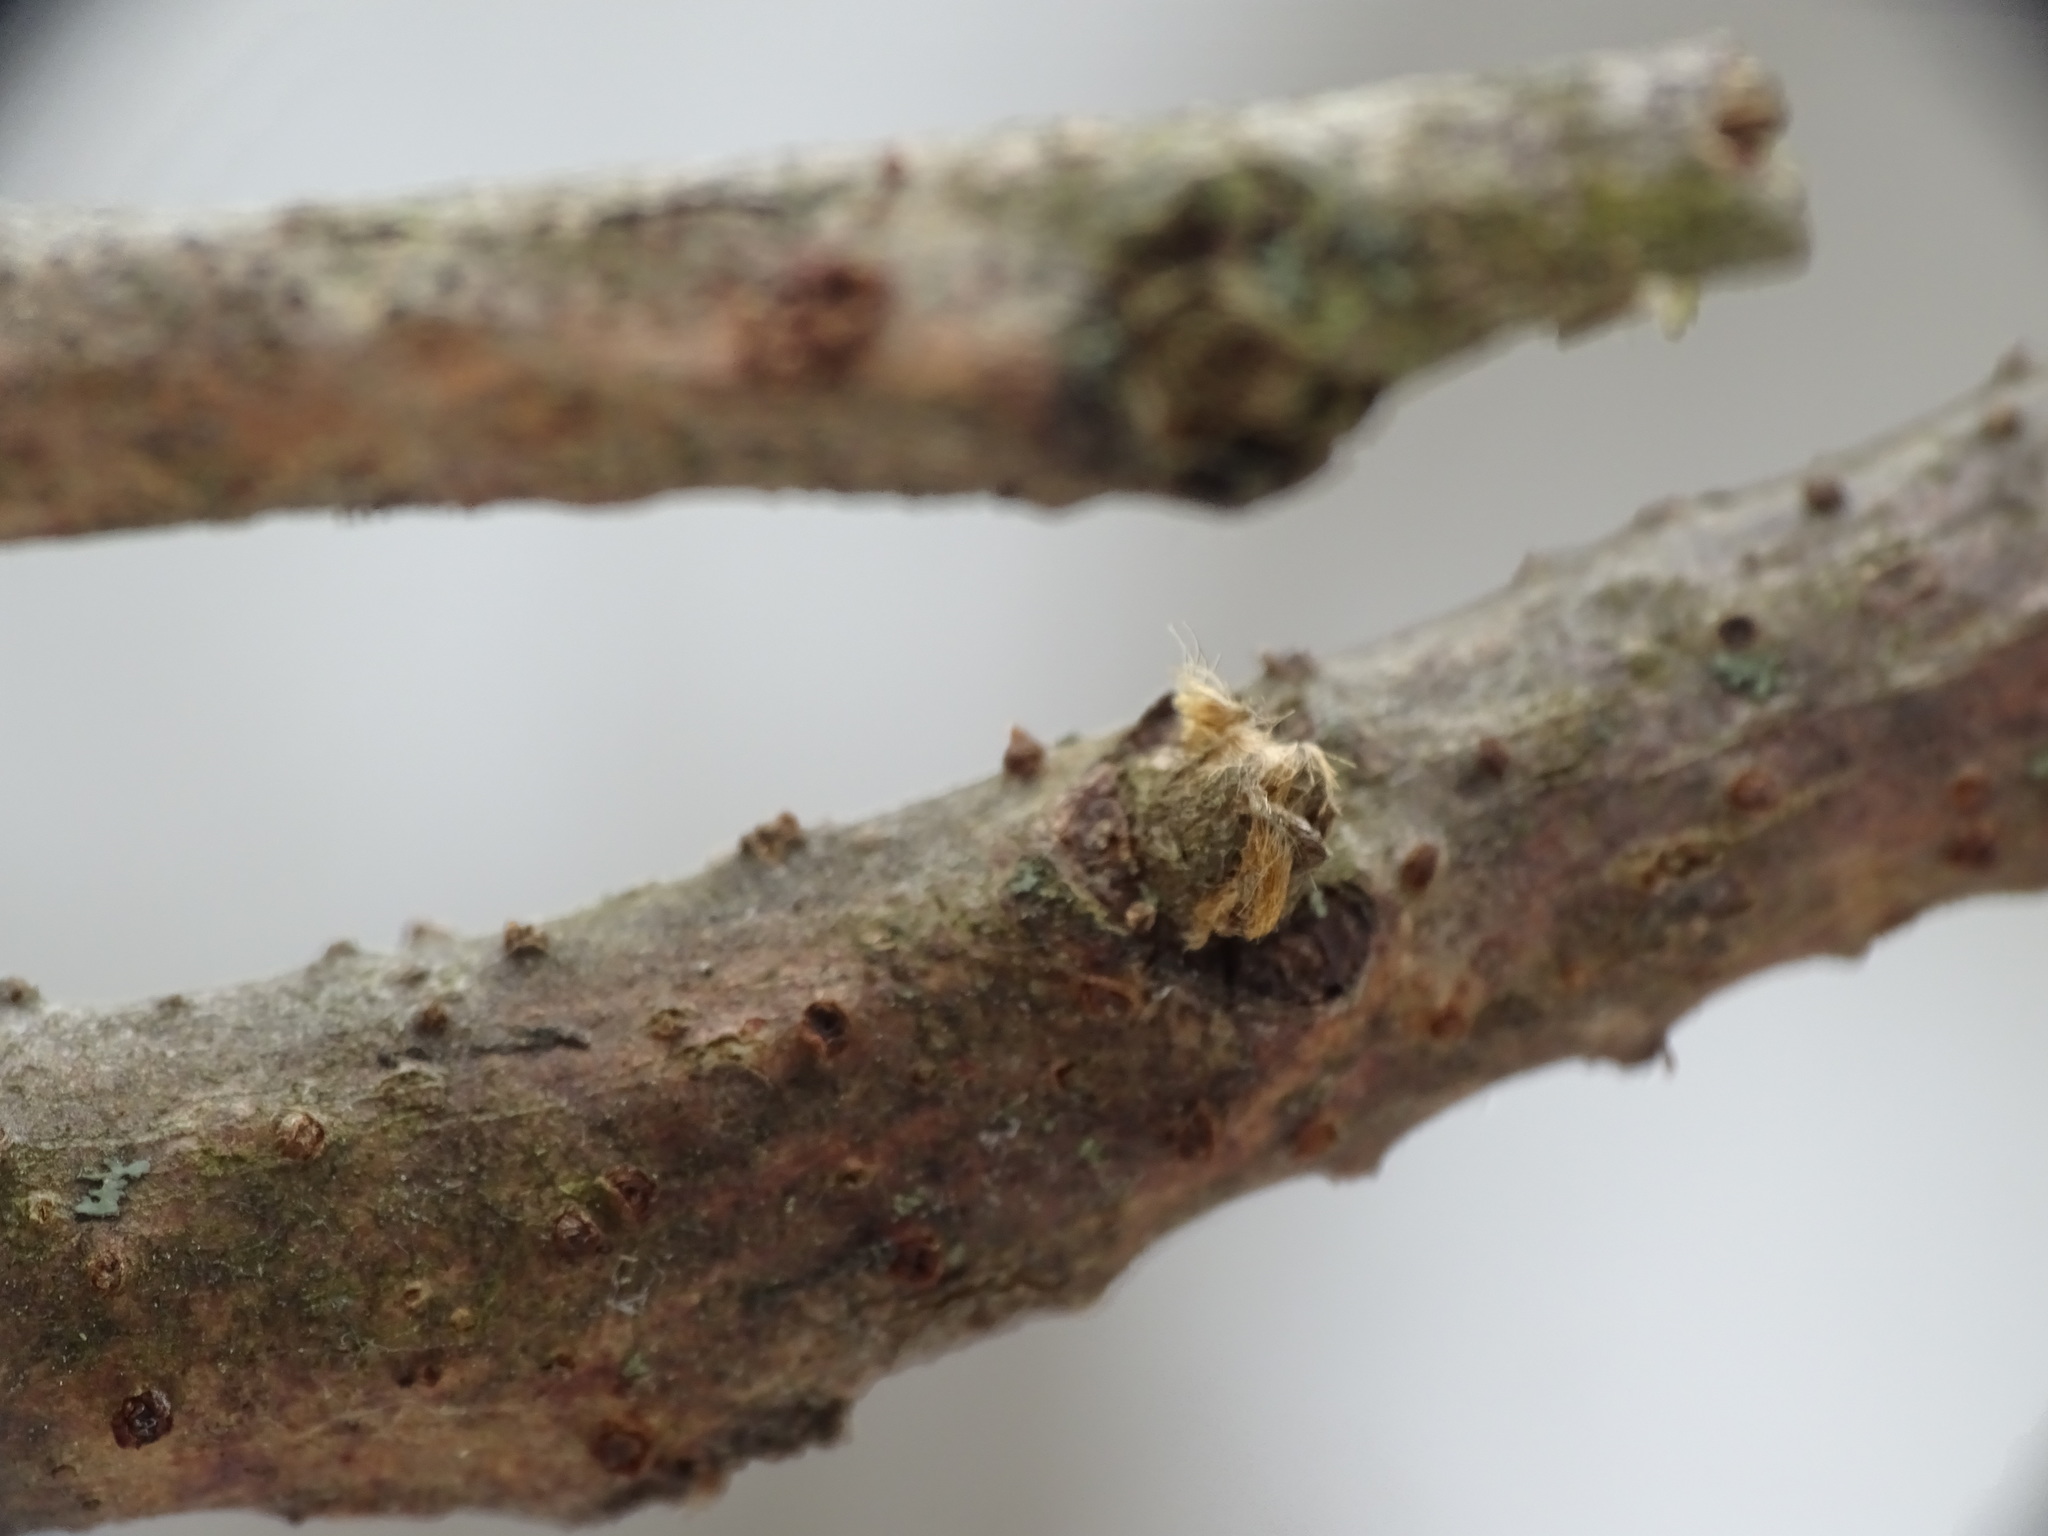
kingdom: Plantae
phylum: Tracheophyta
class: Magnoliopsida
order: Sapindales
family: Anacardiaceae
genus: Rhus
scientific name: Rhus typhina
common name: Staghorn sumac
